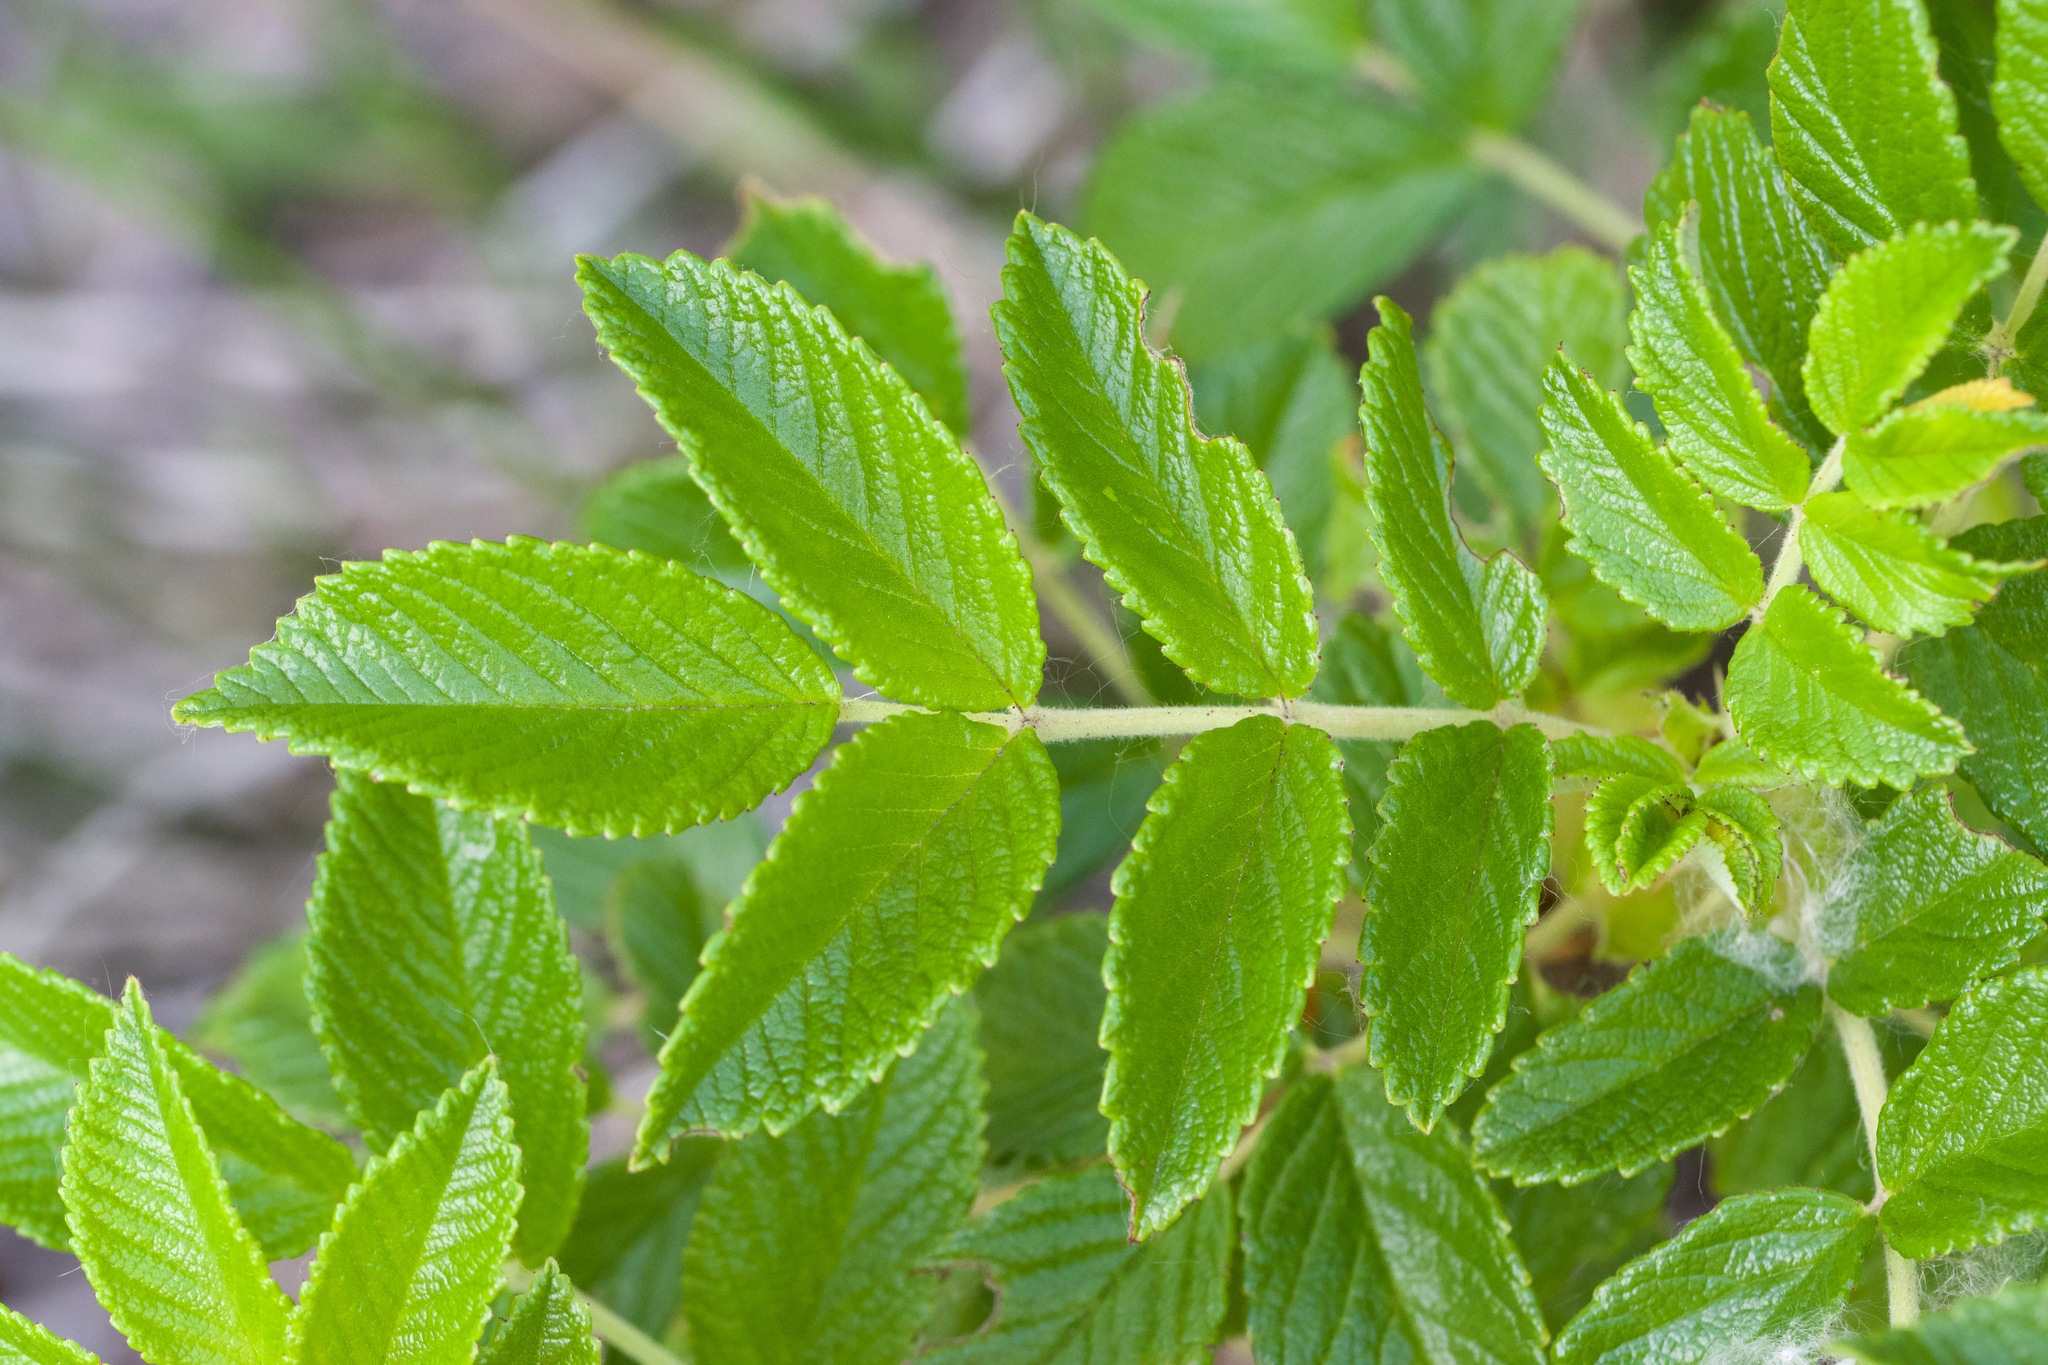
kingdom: Plantae
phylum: Tracheophyta
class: Magnoliopsida
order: Rosales
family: Rosaceae
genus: Rosa
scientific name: Rosa rugosa
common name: Japanese rose
